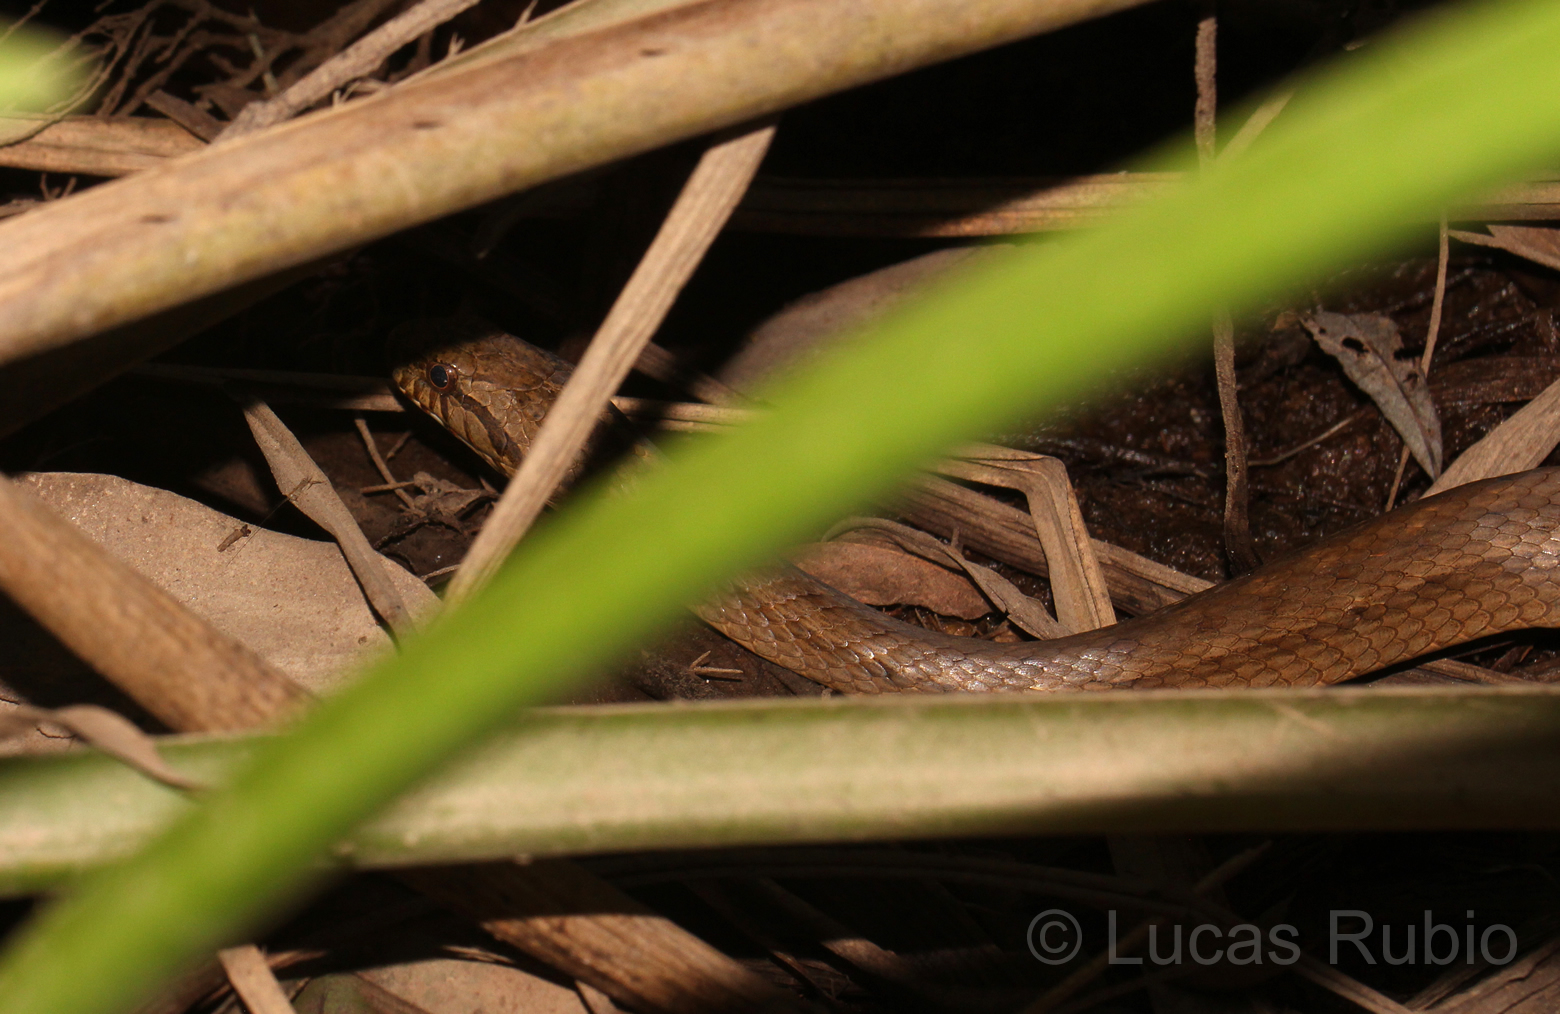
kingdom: Animalia
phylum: Chordata
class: Squamata
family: Colubridae
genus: Dryophylax
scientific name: Dryophylax
